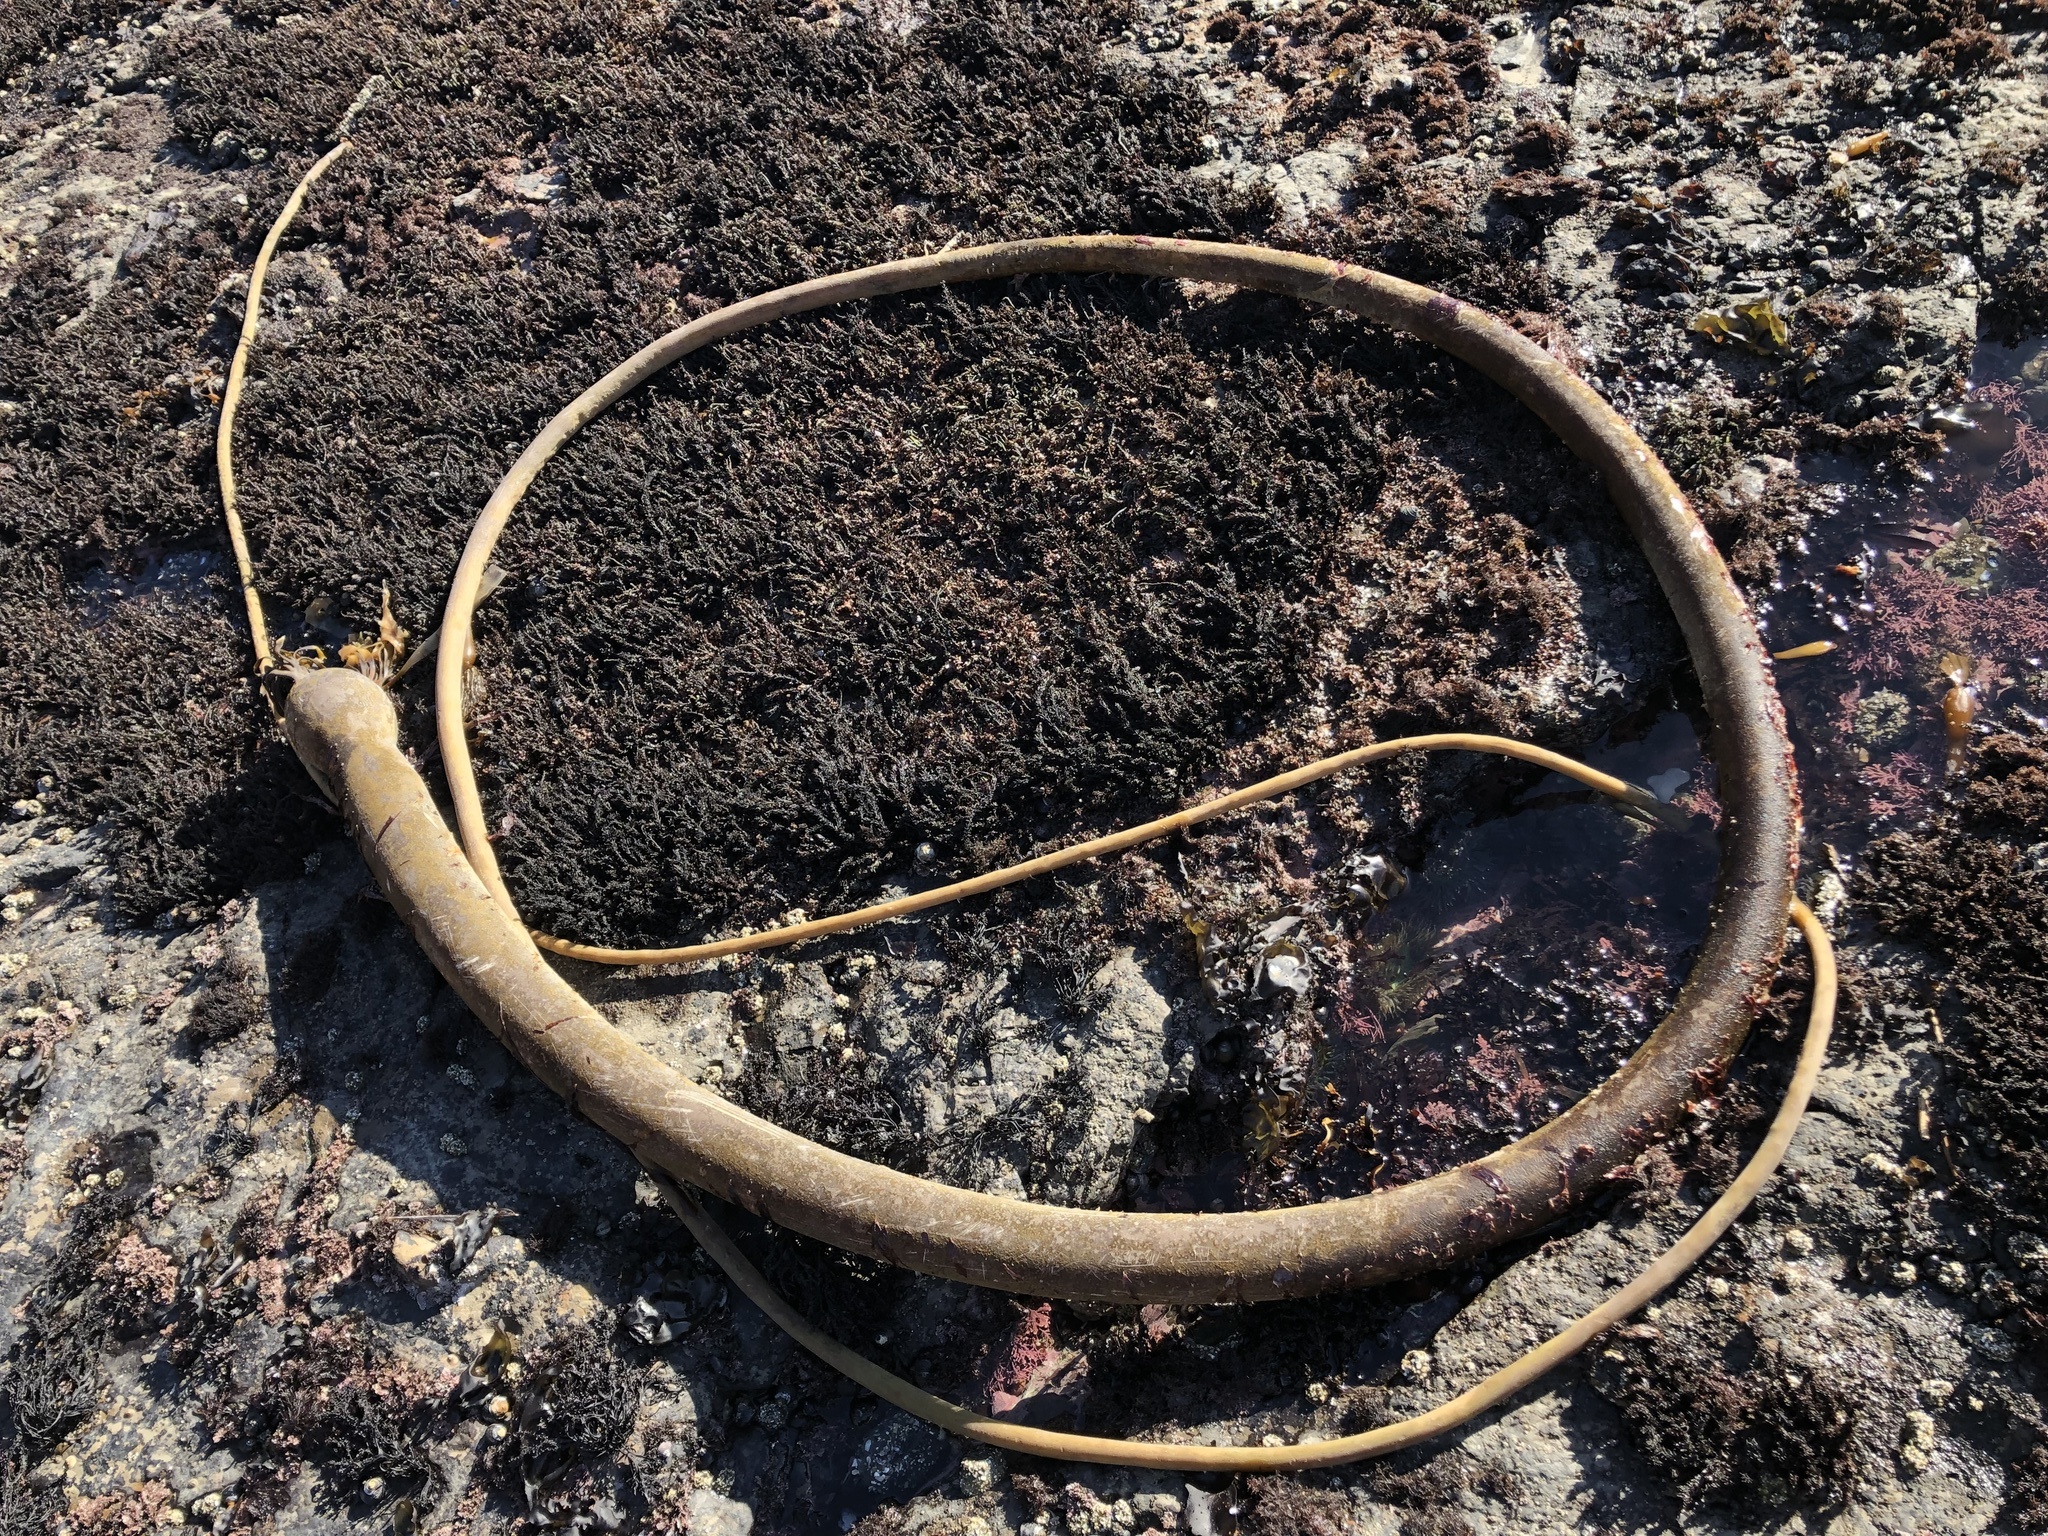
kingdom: Chromista
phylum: Ochrophyta
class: Phaeophyceae
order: Laminariales
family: Laminariaceae
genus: Nereocystis
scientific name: Nereocystis luetkeana
